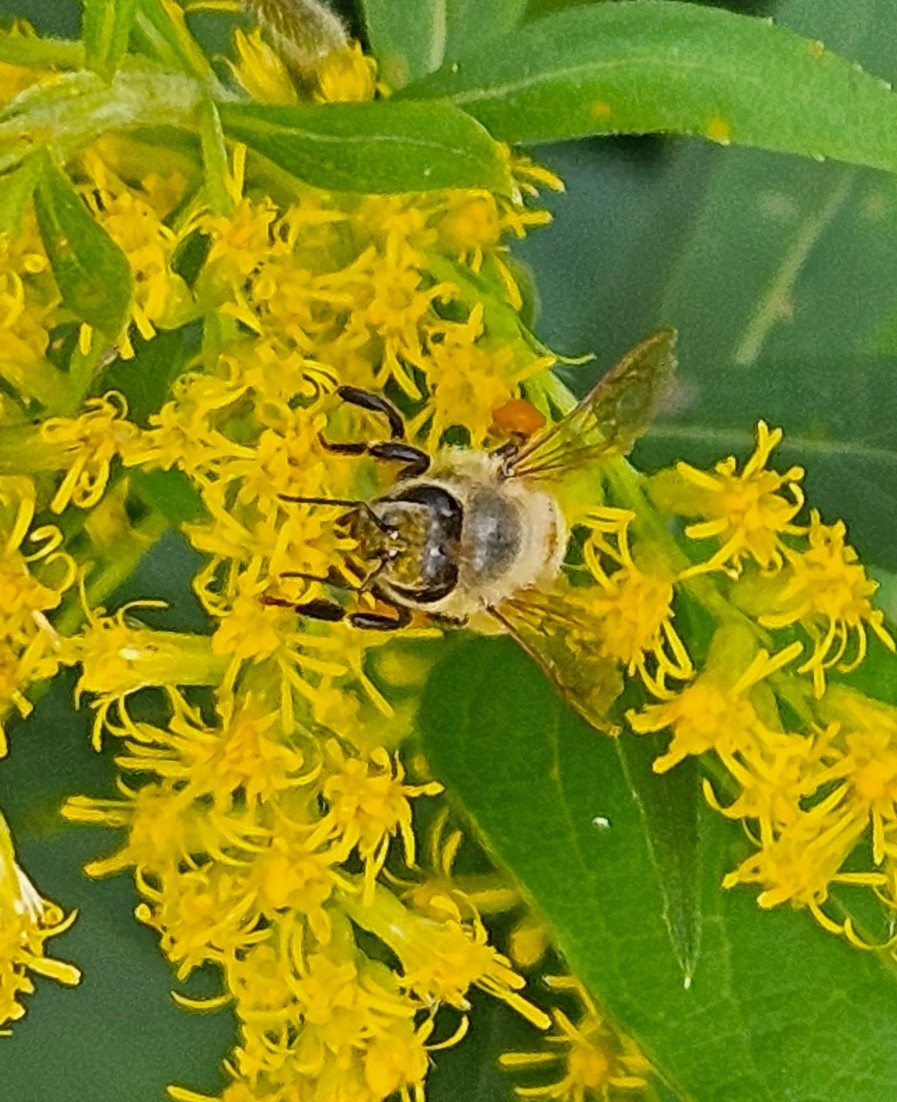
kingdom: Animalia
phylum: Arthropoda
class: Insecta
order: Hymenoptera
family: Apidae
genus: Apis
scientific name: Apis mellifera
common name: Honey bee
